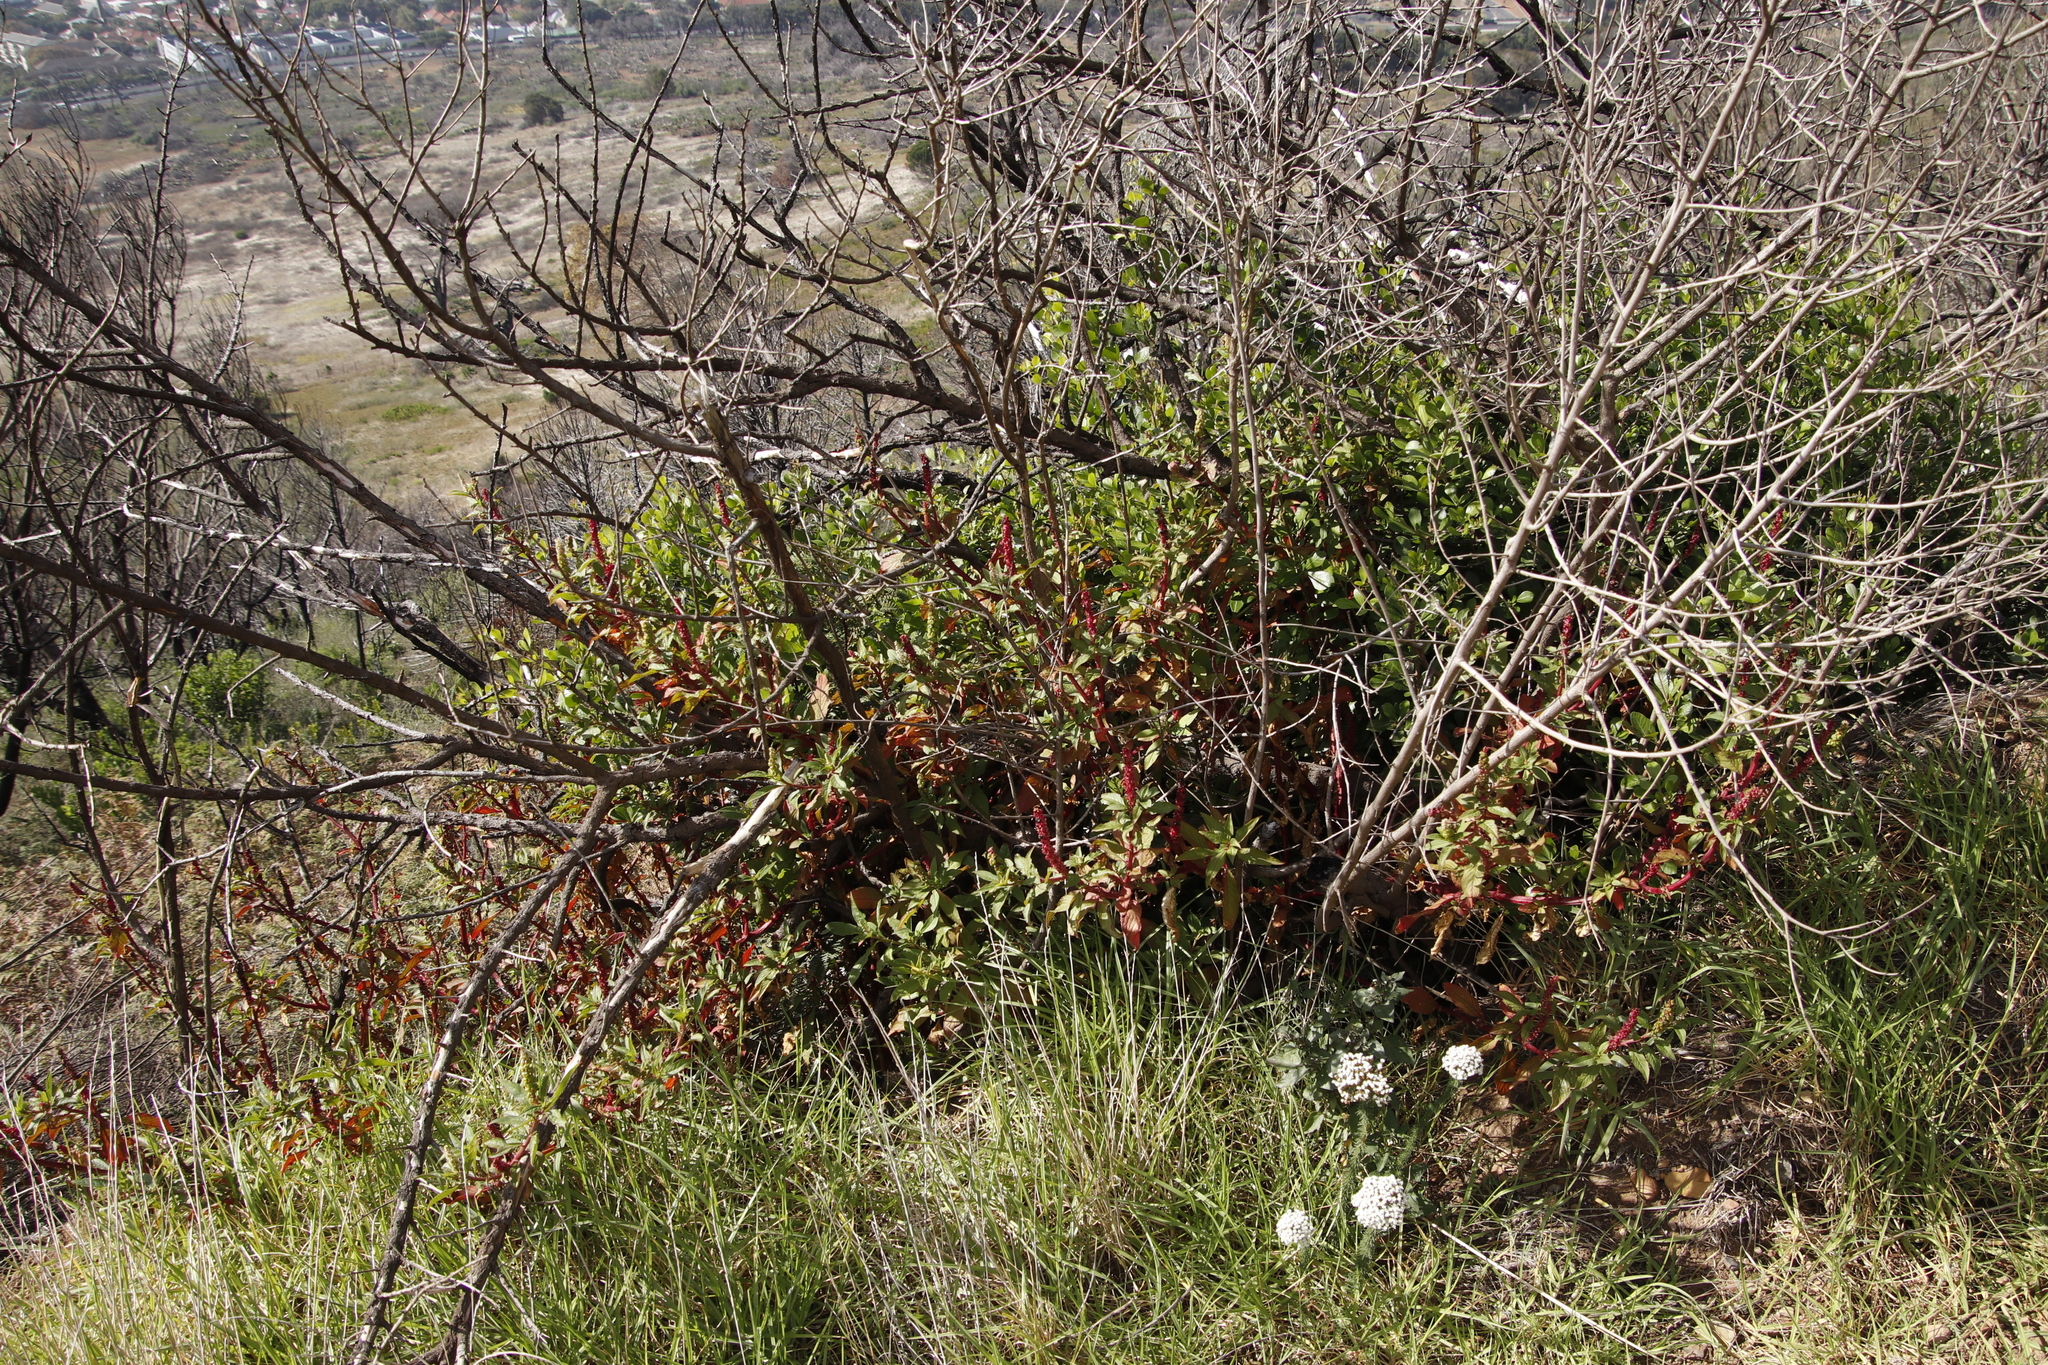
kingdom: Plantae
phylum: Tracheophyta
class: Magnoliopsida
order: Caryophyllales
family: Phytolaccaceae
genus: Phytolacca
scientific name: Phytolacca icosandra
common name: Button pokeweed
